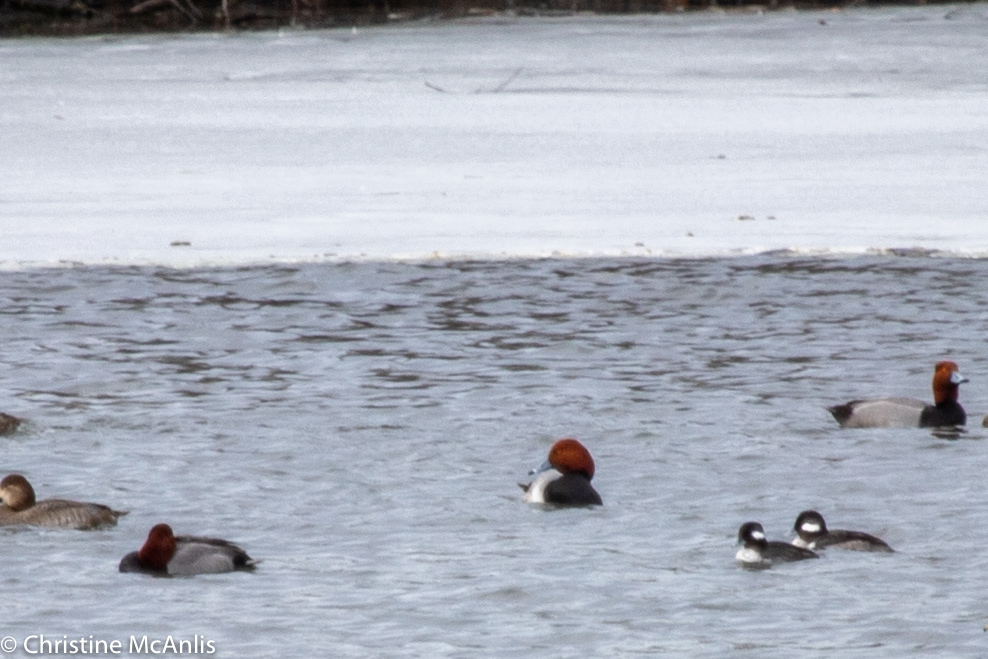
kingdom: Animalia
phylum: Chordata
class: Aves
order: Anseriformes
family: Anatidae
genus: Bucephala
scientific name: Bucephala albeola
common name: Bufflehead
